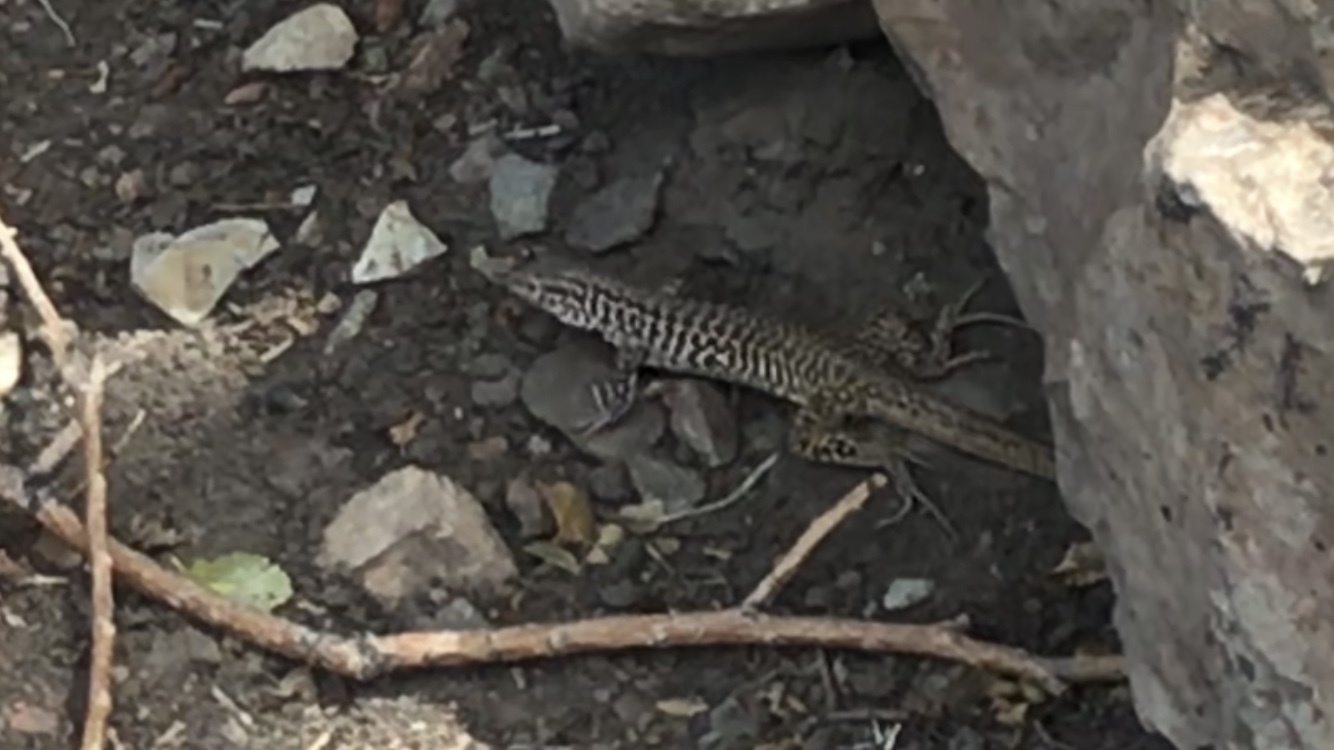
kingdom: Animalia
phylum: Chordata
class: Squamata
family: Teiidae
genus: Aspidoscelis
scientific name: Aspidoscelis tesselatus
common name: Common checkered whiptail [tesselata]
